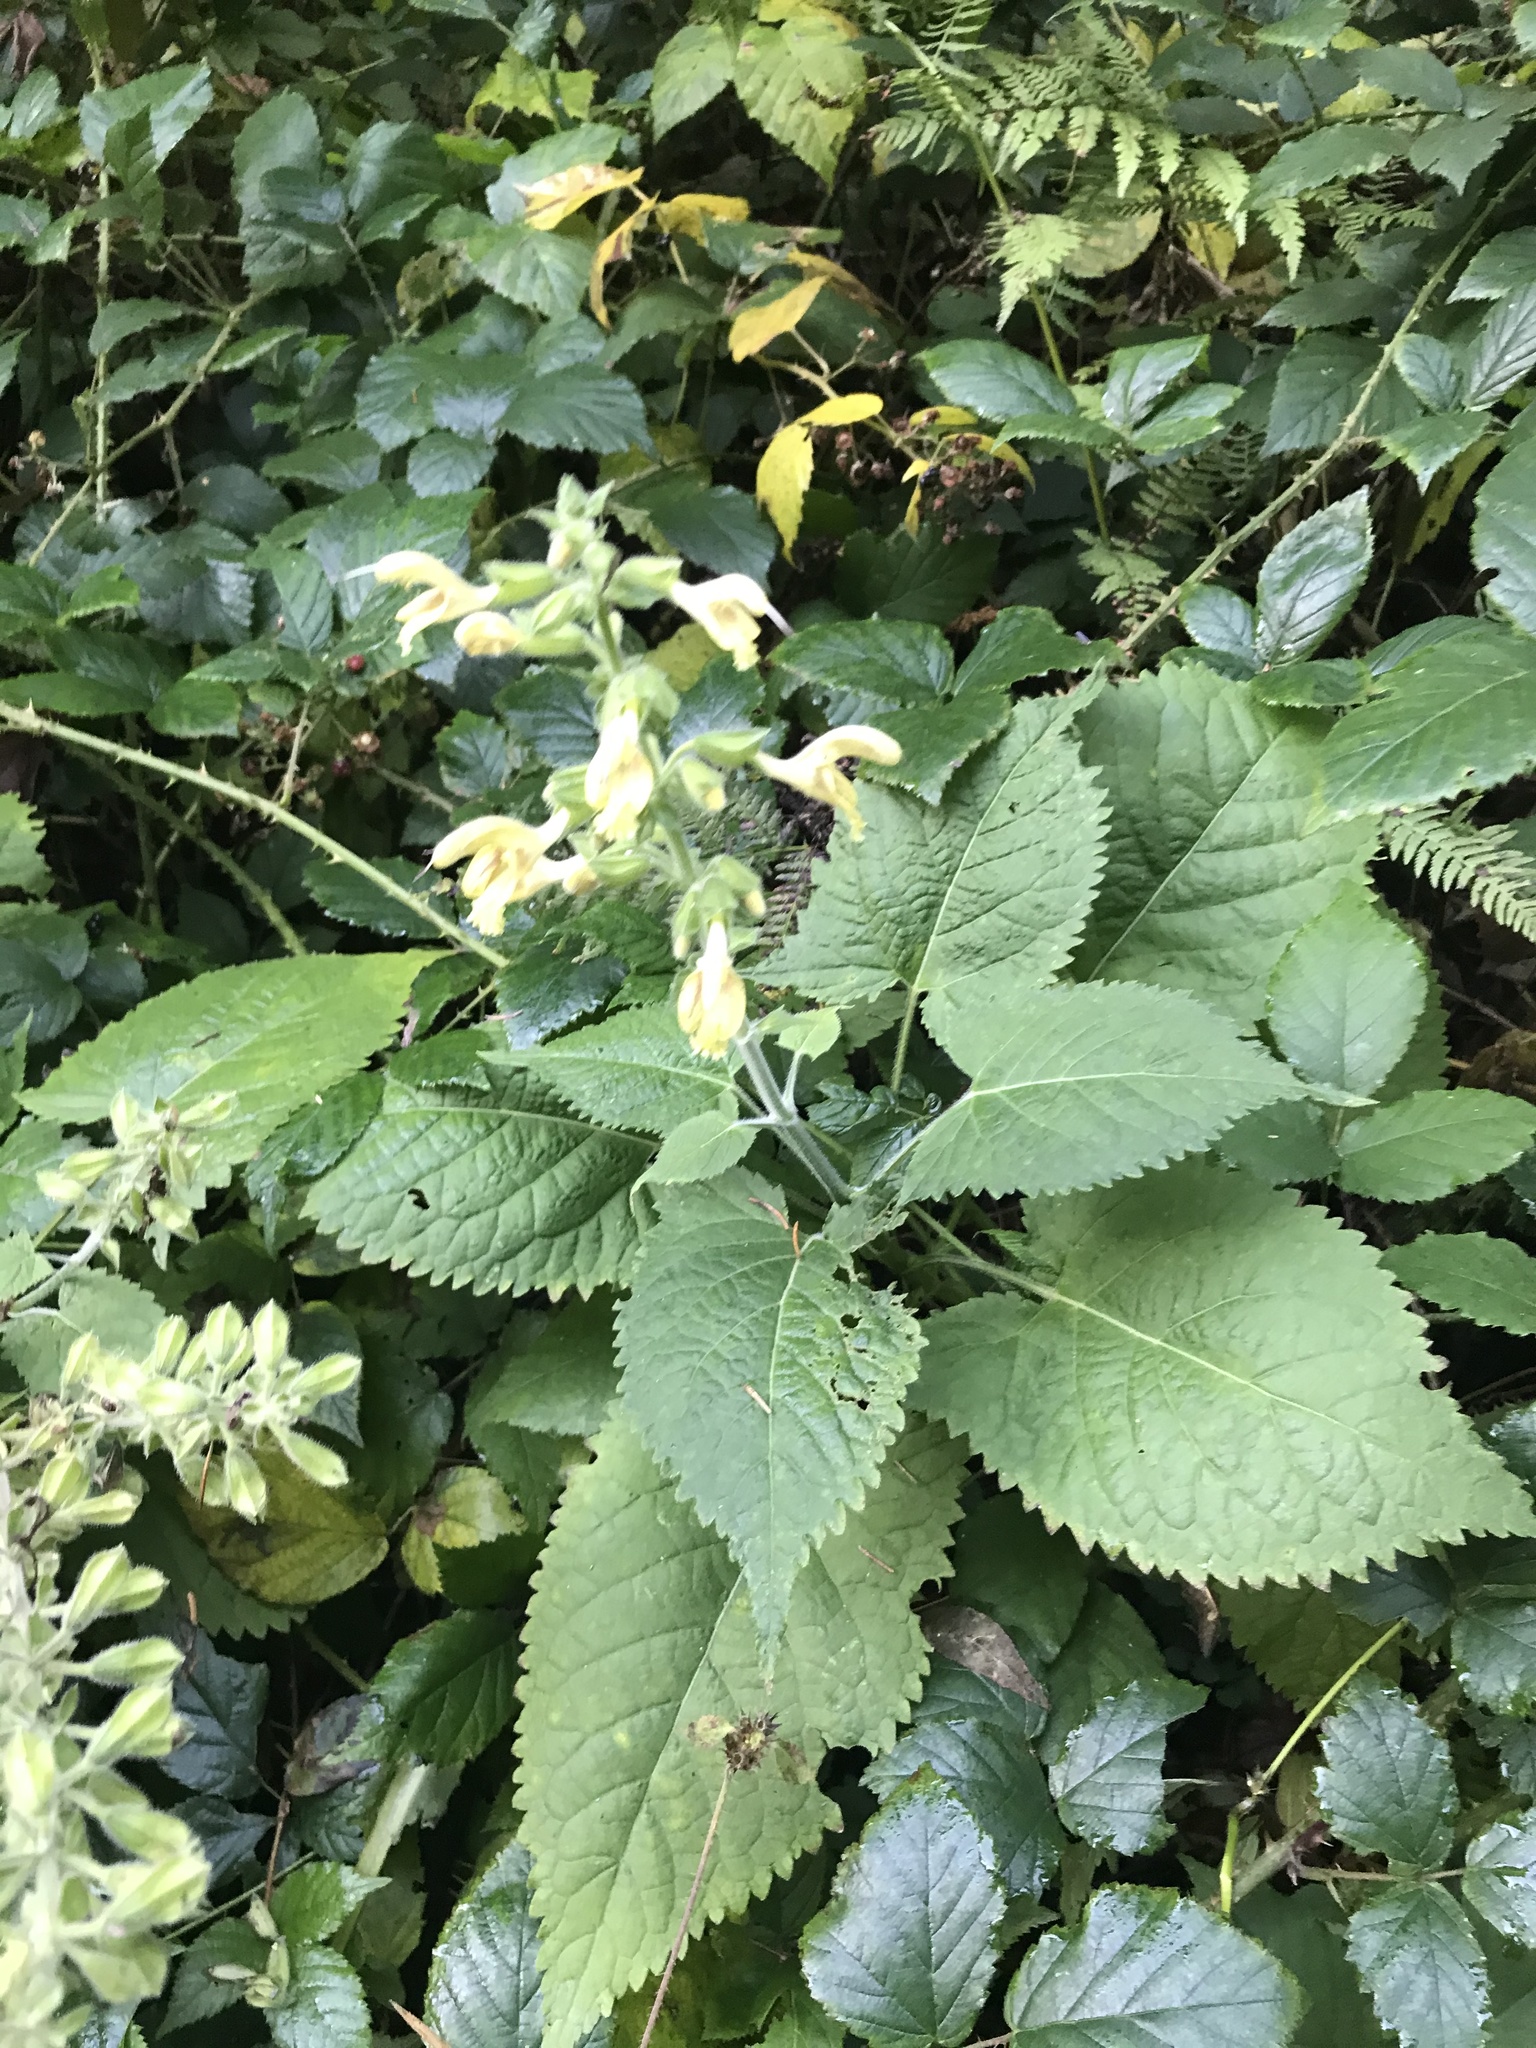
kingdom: Plantae
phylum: Tracheophyta
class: Magnoliopsida
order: Lamiales
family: Lamiaceae
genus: Salvia
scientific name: Salvia glutinosa
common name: Sticky clary
